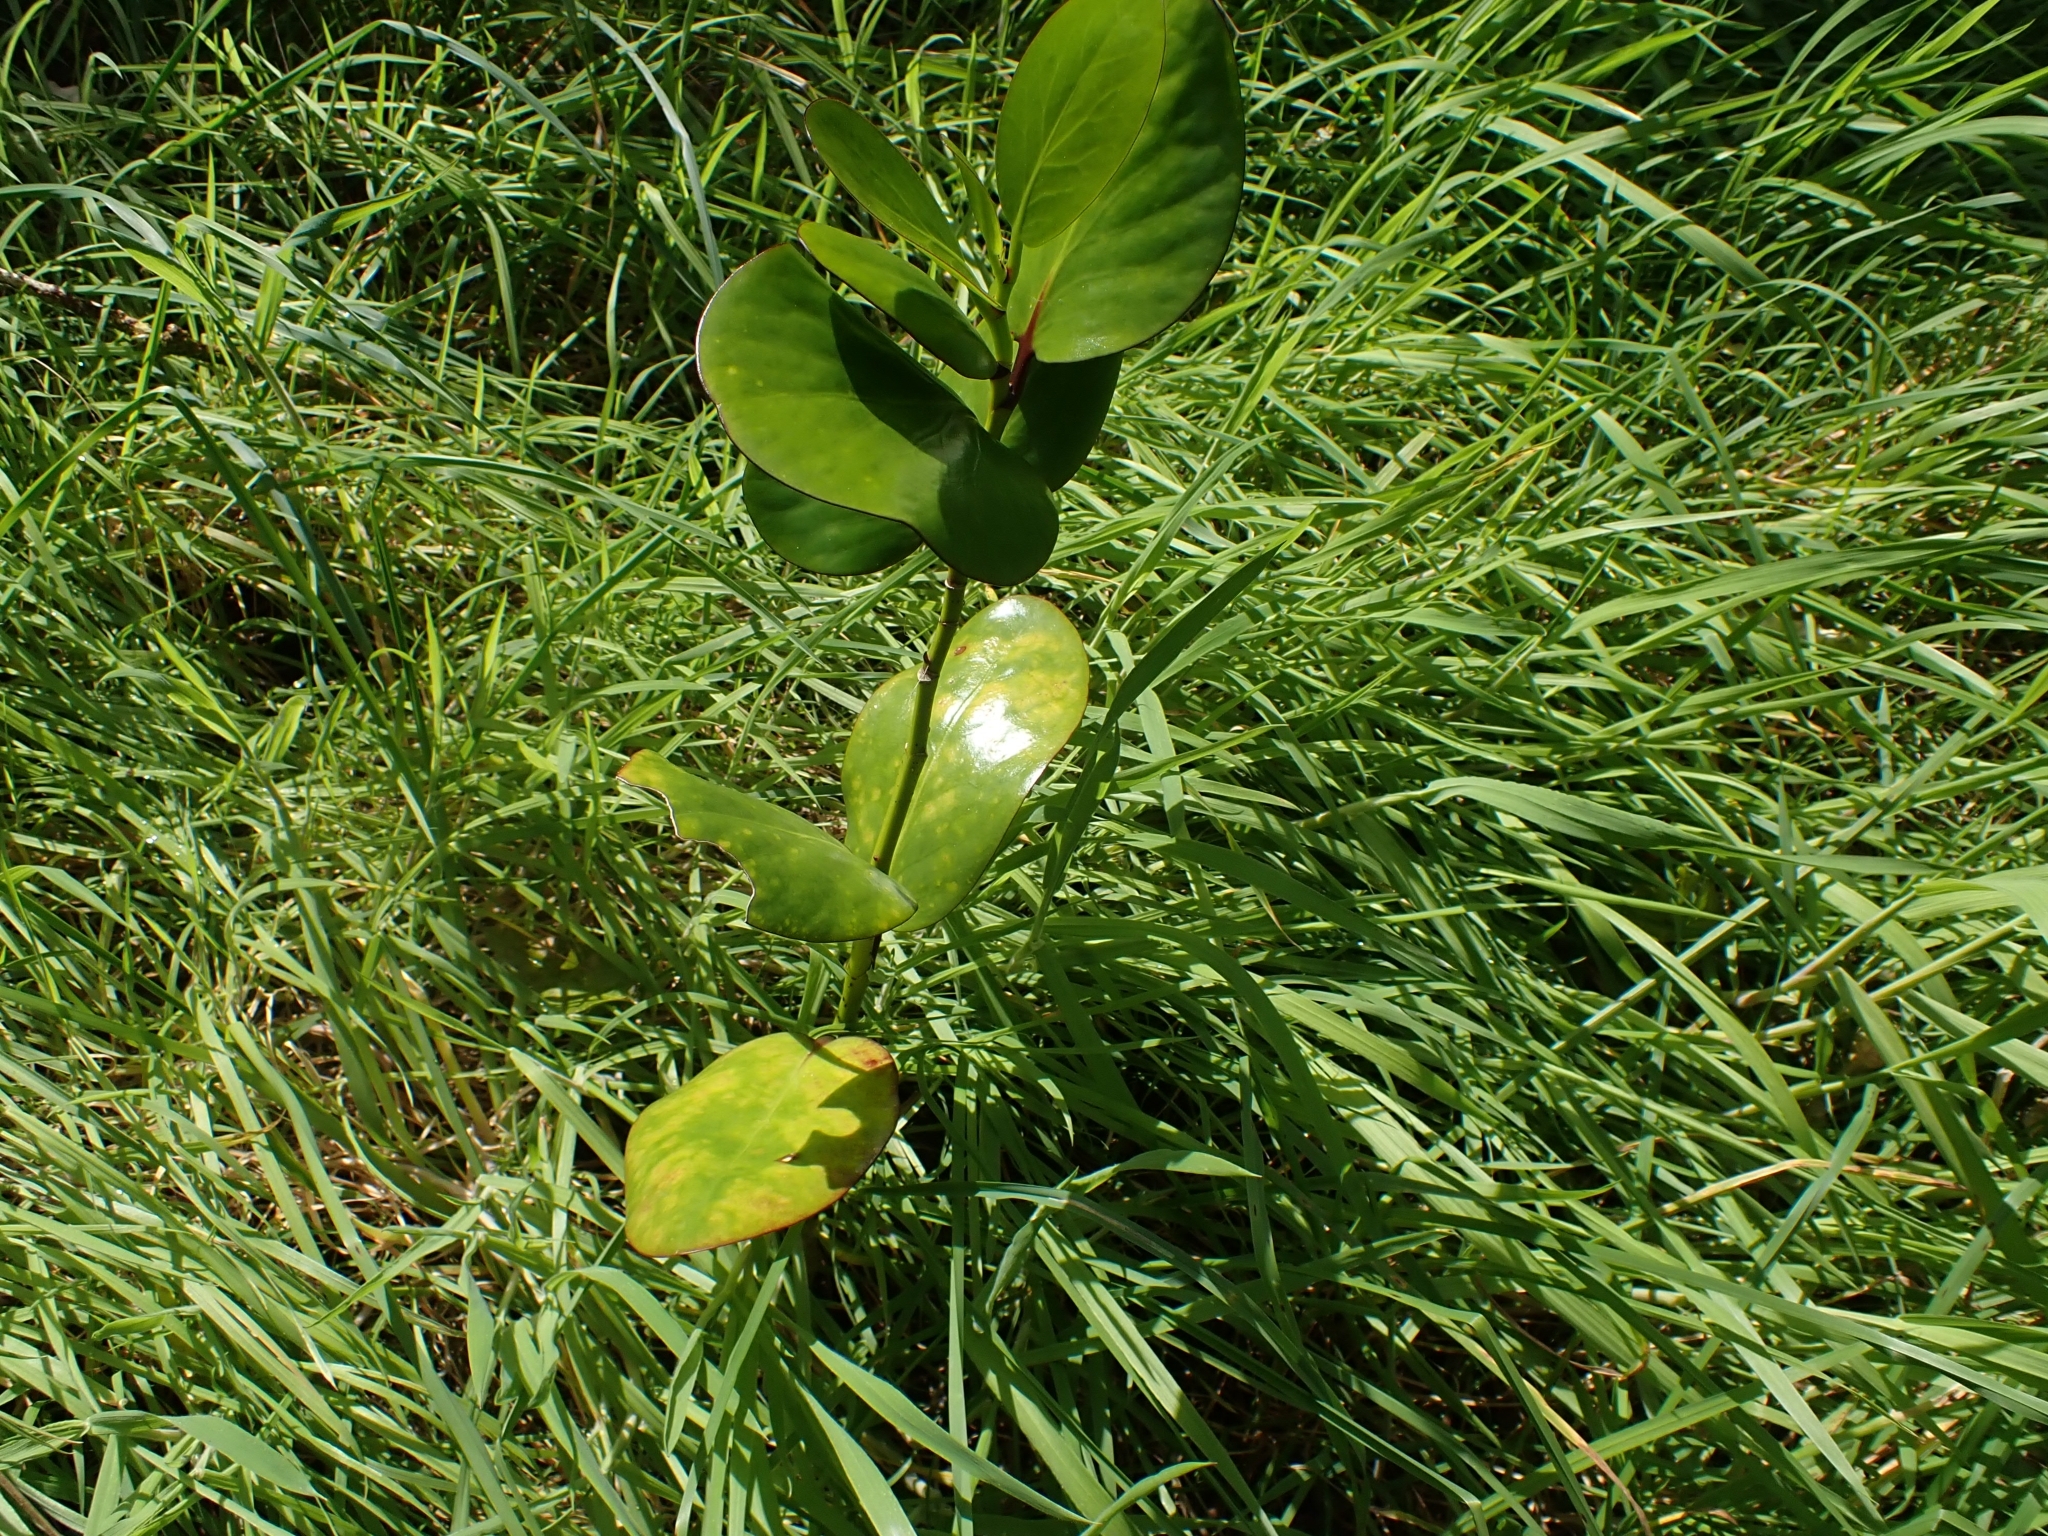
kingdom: Plantae
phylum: Tracheophyta
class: Magnoliopsida
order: Apiales
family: Griseliniaceae
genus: Griselinia
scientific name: Griselinia lucida
